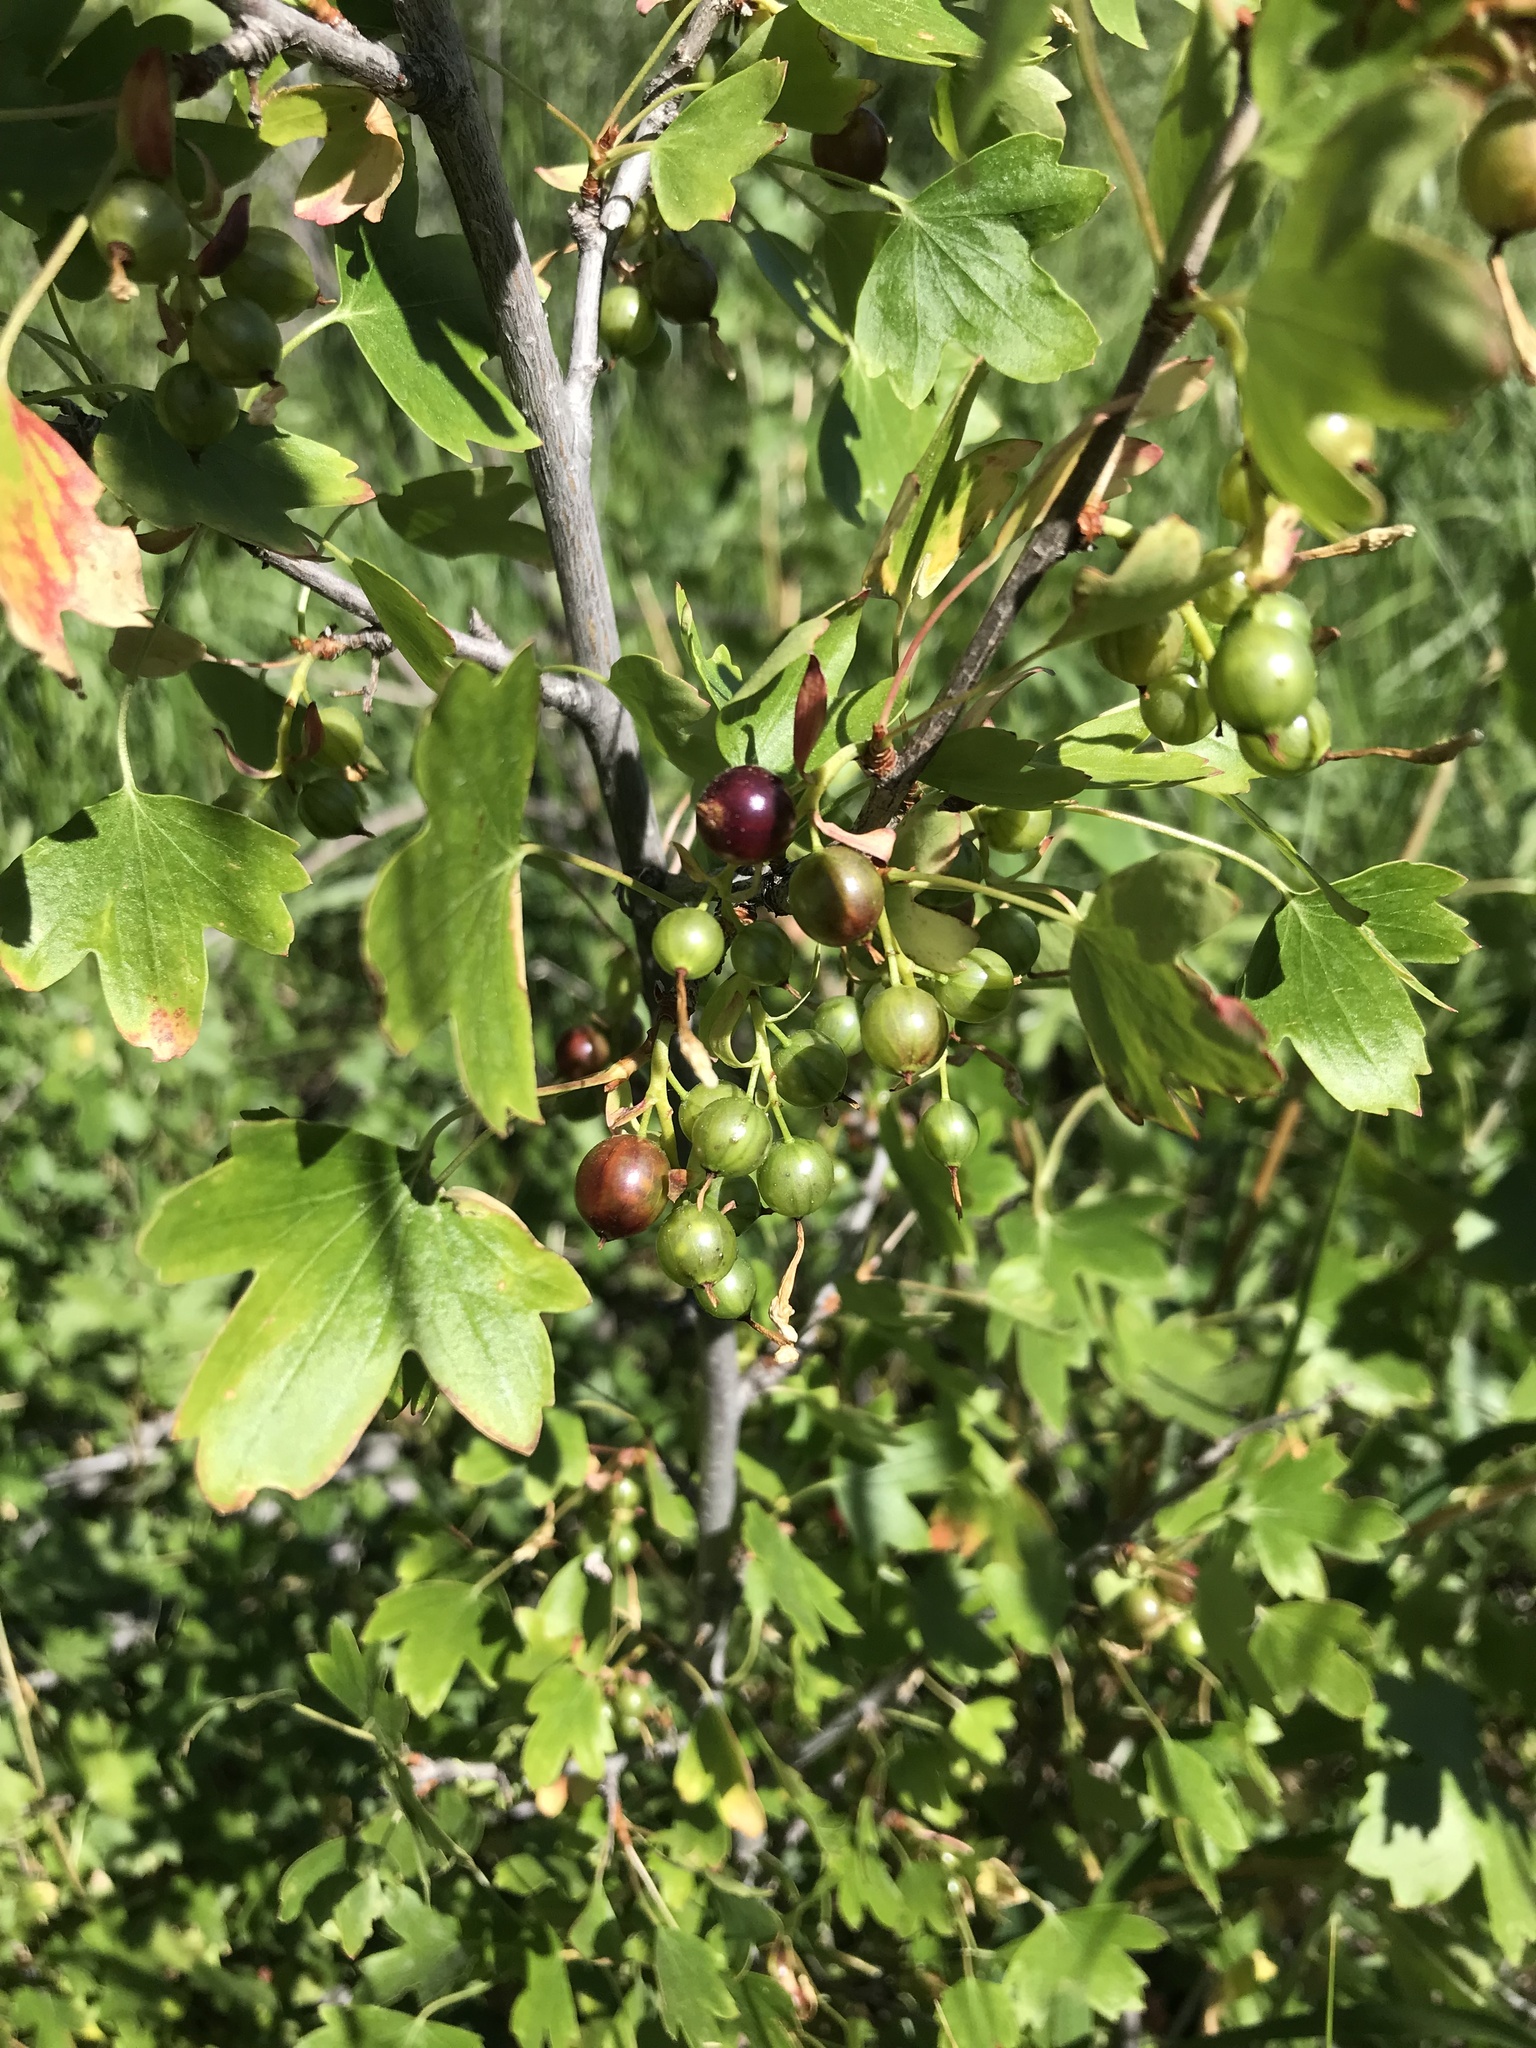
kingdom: Plantae
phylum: Tracheophyta
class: Magnoliopsida
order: Saxifragales
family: Grossulariaceae
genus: Ribes
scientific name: Ribes aureum
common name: Golden currant
